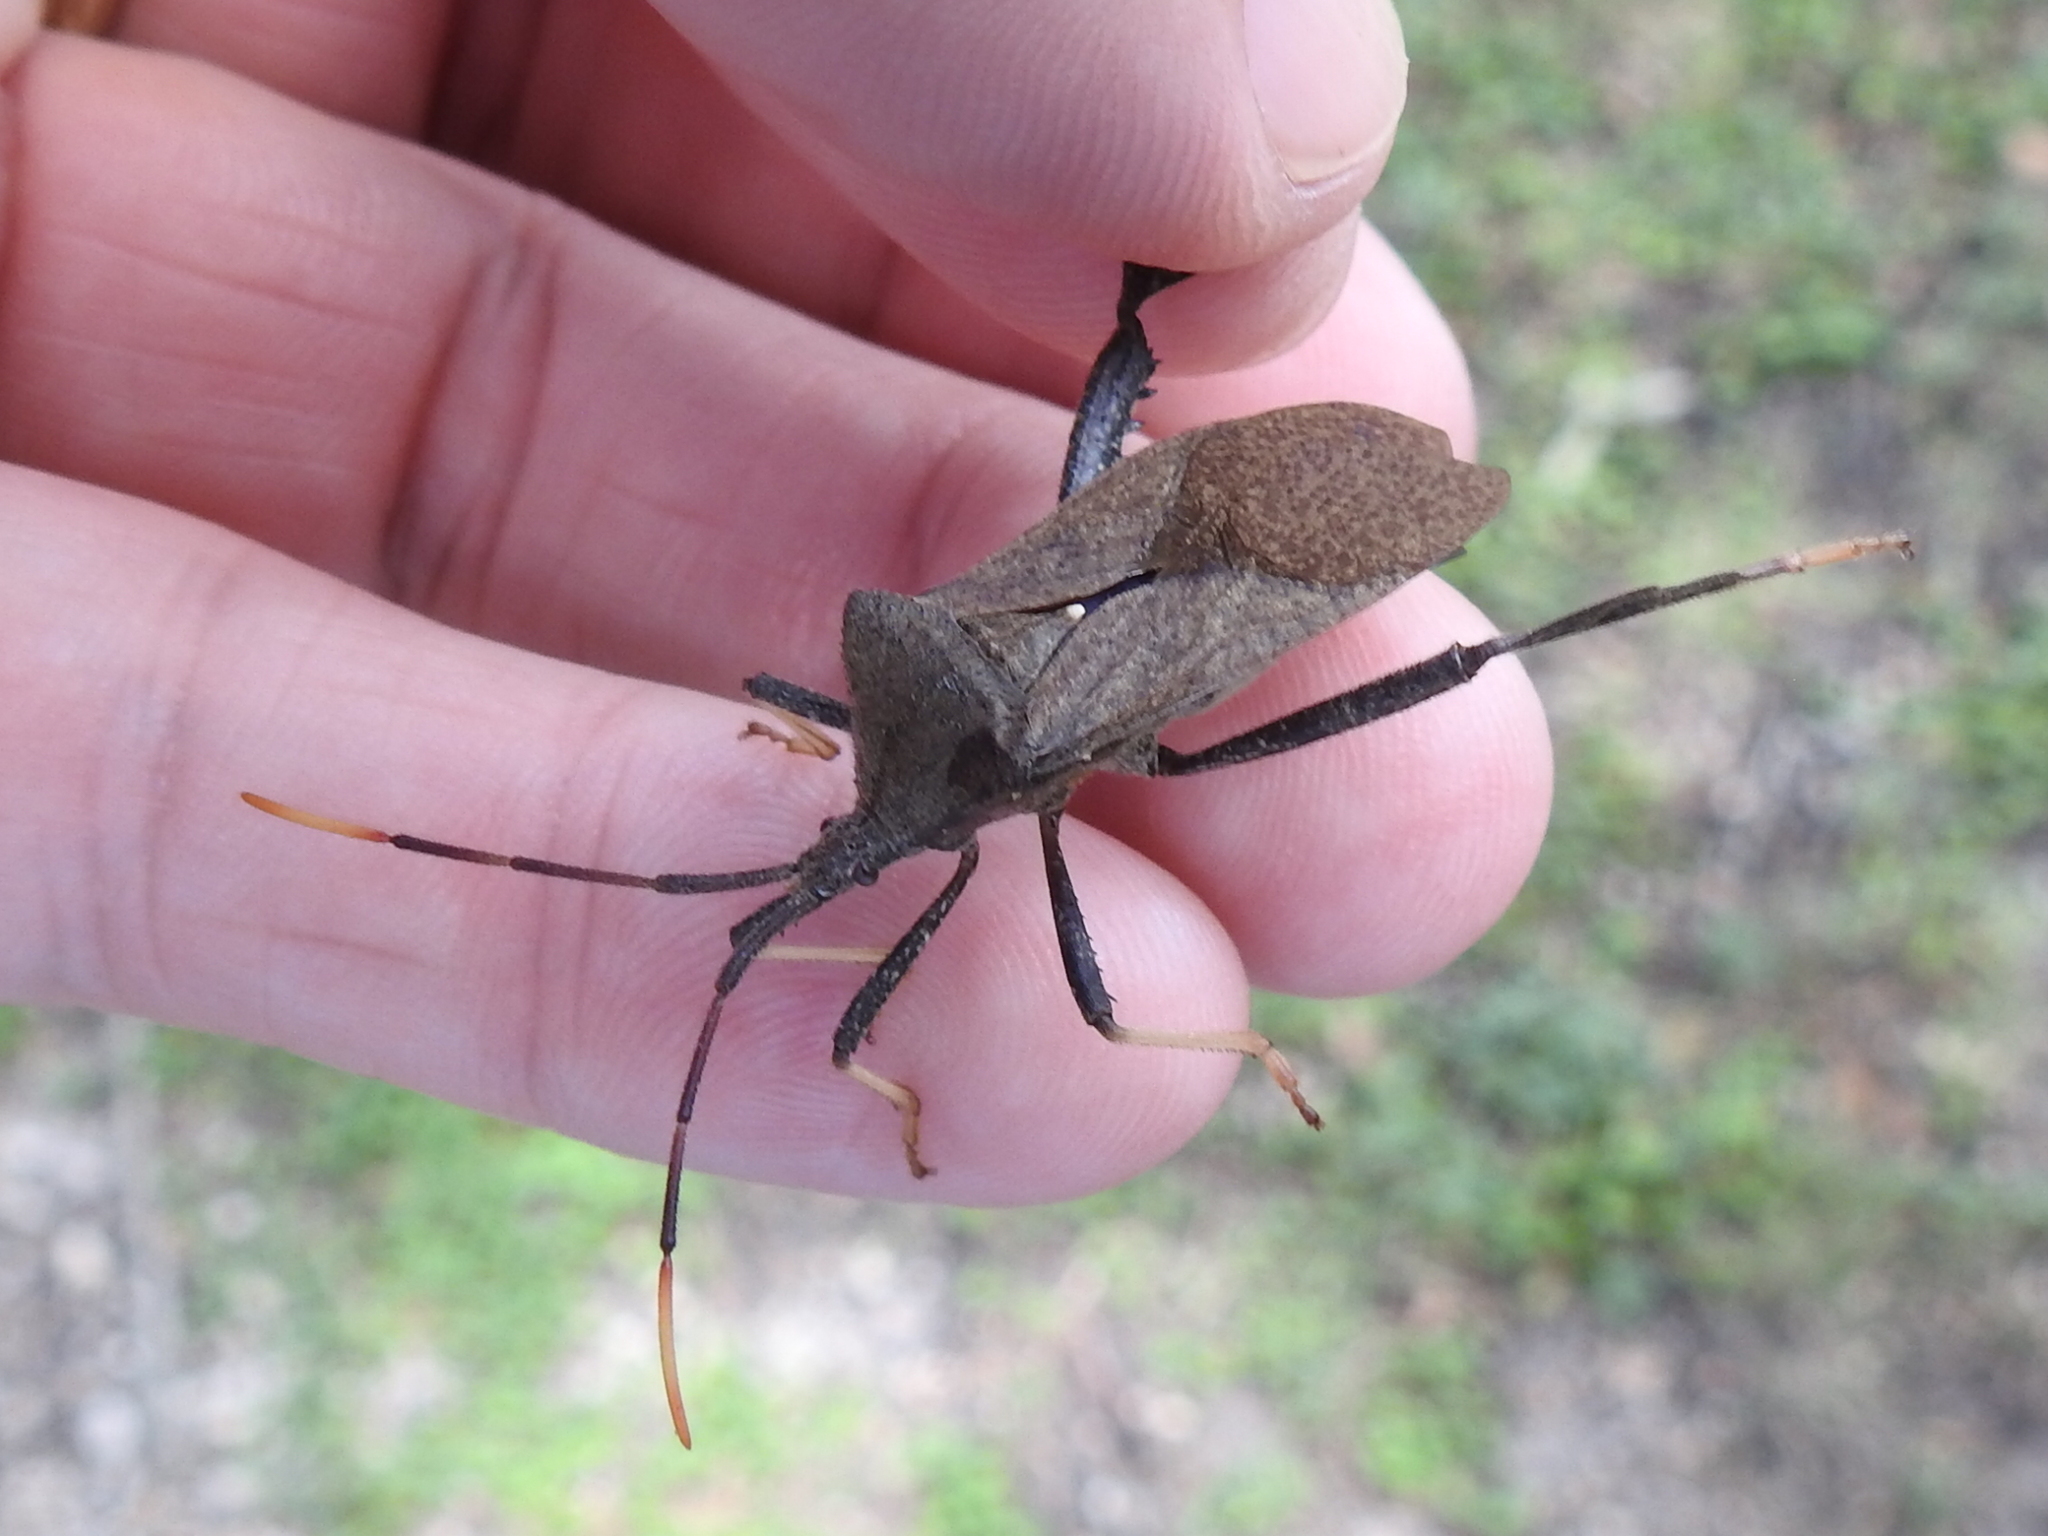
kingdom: Animalia
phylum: Arthropoda
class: Insecta
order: Hemiptera
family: Coreidae
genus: Acanthocephala
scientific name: Acanthocephala terminalis
